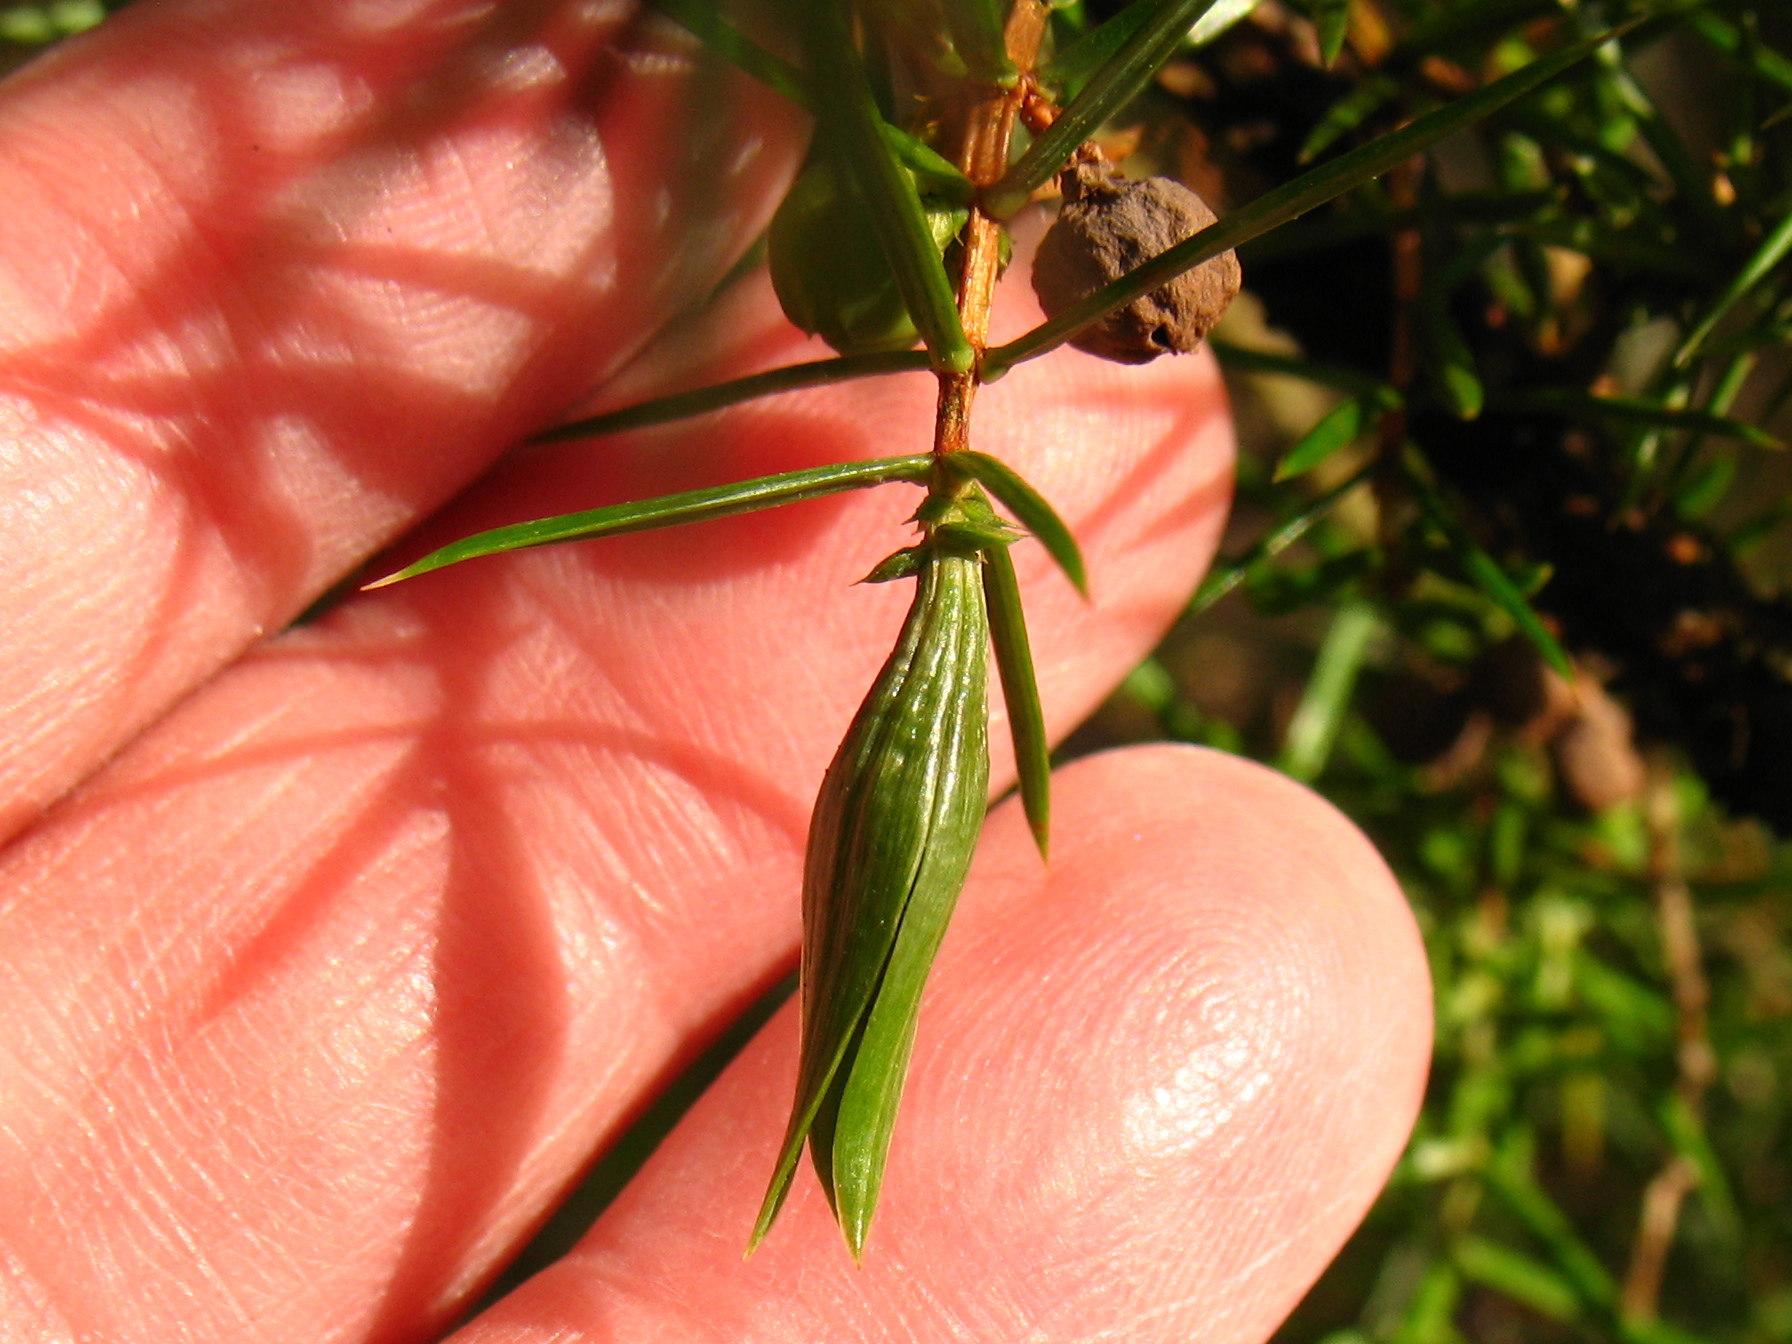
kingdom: Animalia
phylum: Arthropoda
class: Insecta
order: Diptera
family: Cecidomyiidae
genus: Oligotrophus
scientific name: Oligotrophus juniperinus
